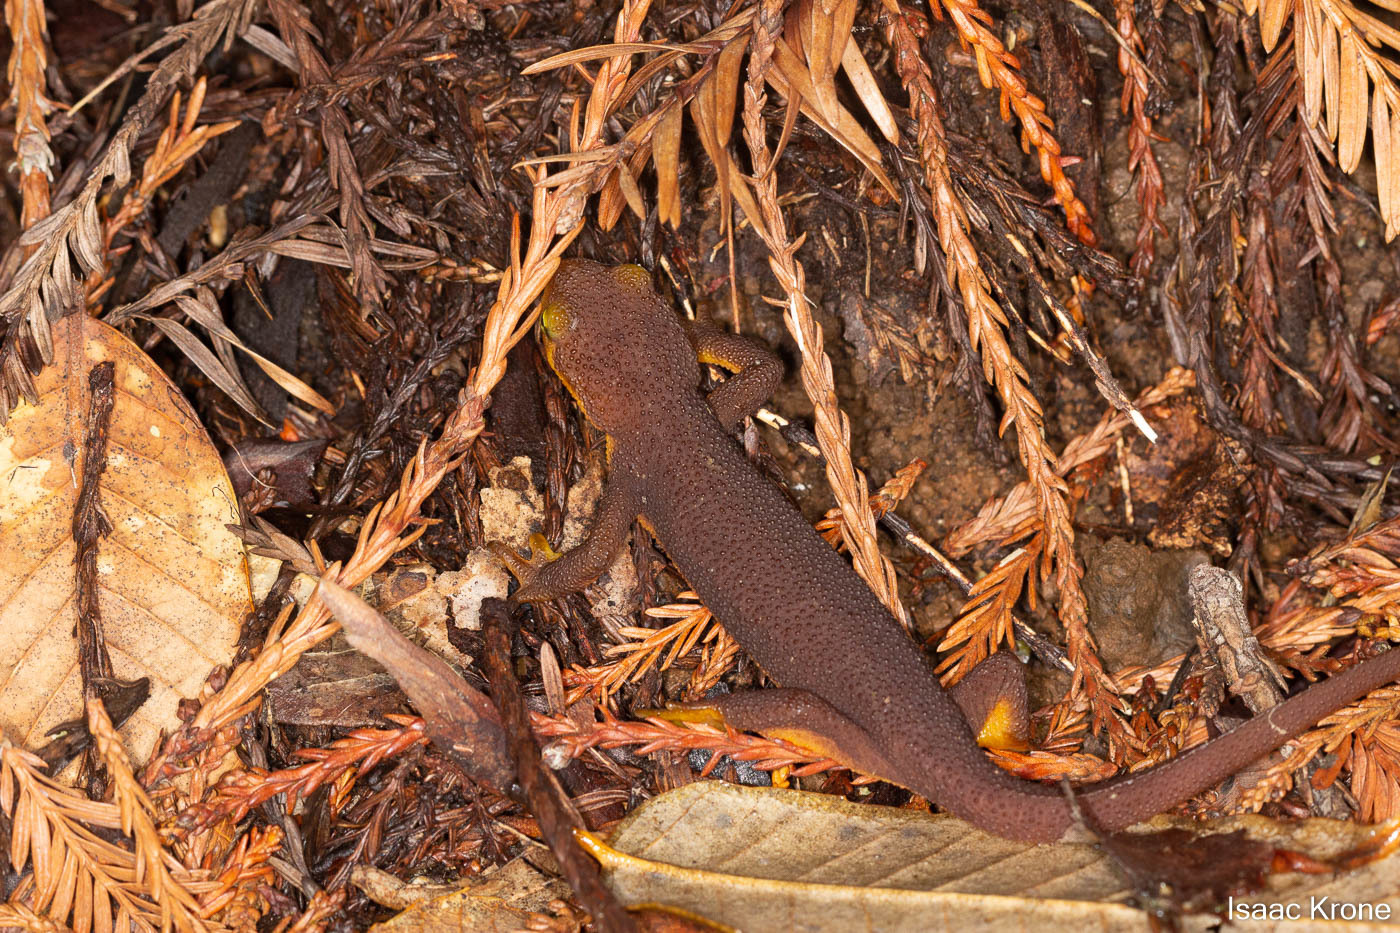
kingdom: Animalia
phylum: Chordata
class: Amphibia
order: Caudata
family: Salamandridae
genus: Taricha
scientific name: Taricha torosa
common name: California newt
